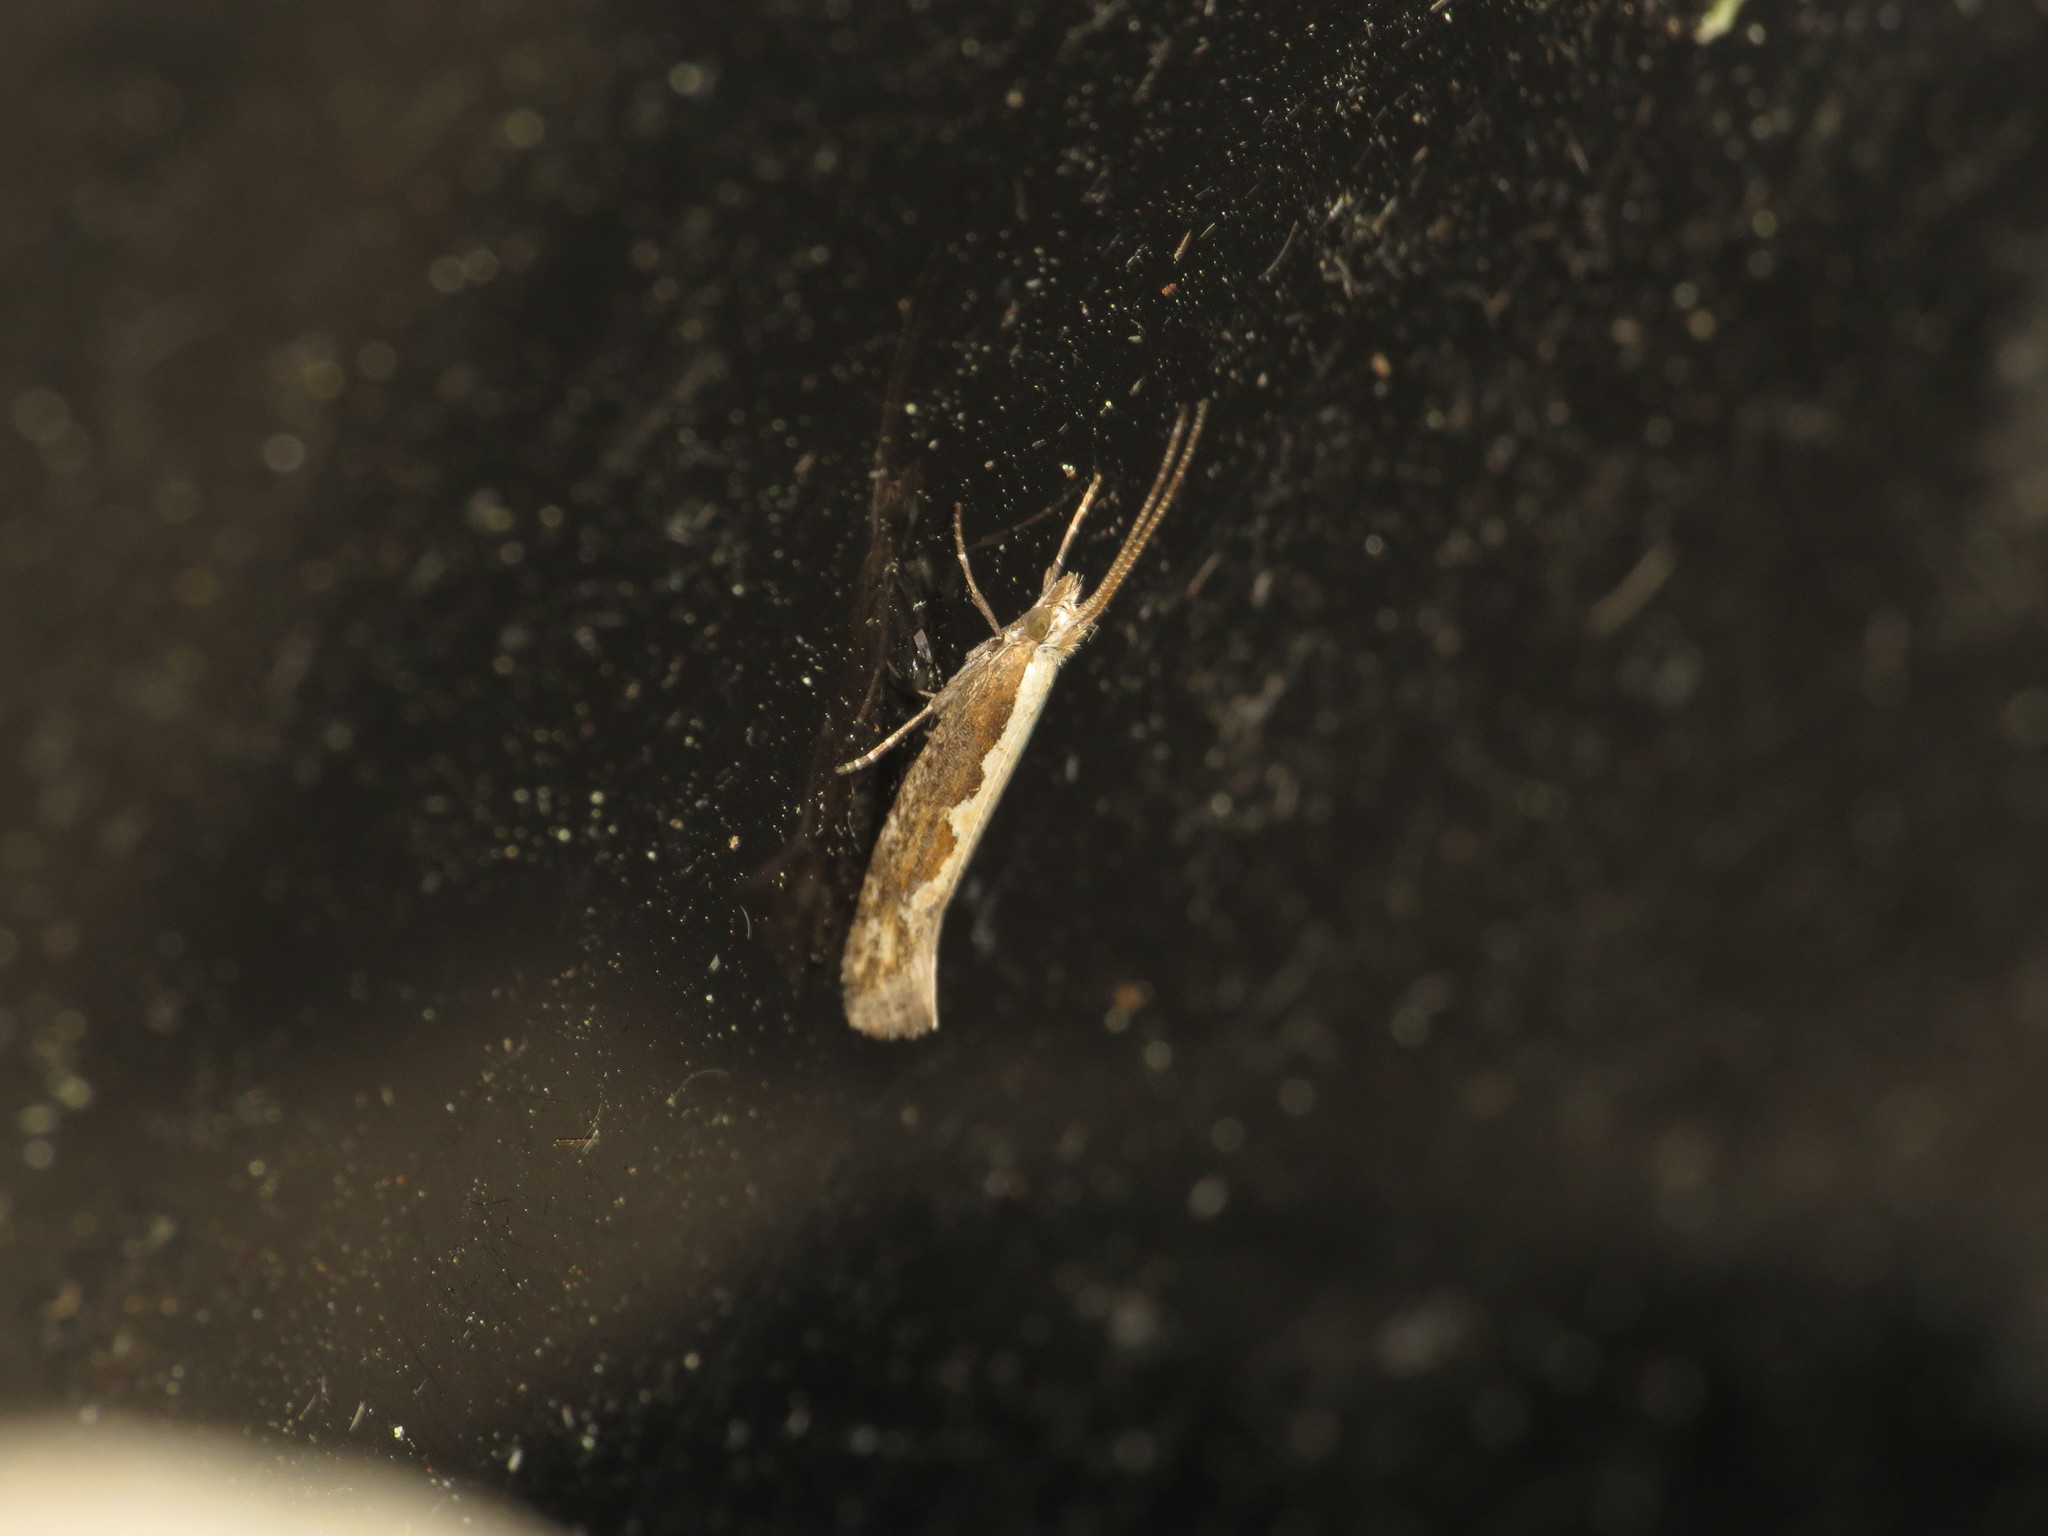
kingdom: Animalia
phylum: Arthropoda
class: Insecta
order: Lepidoptera
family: Plutellidae
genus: Plutella
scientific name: Plutella xylostella
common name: Diamond-back moth
